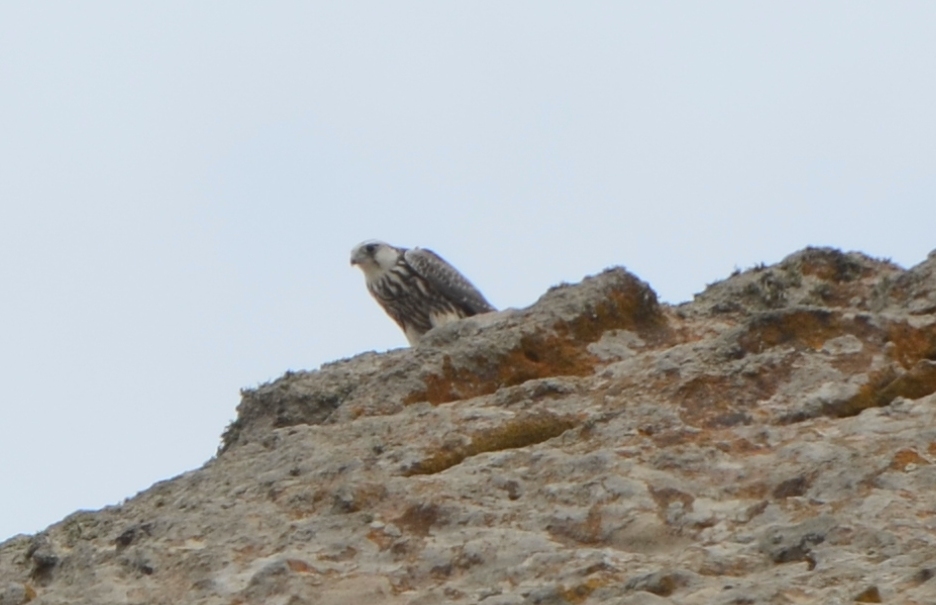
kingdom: Animalia
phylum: Chordata
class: Aves
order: Falconiformes
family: Falconidae
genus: Falco
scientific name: Falco biarmicus
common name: Lanner falcon
